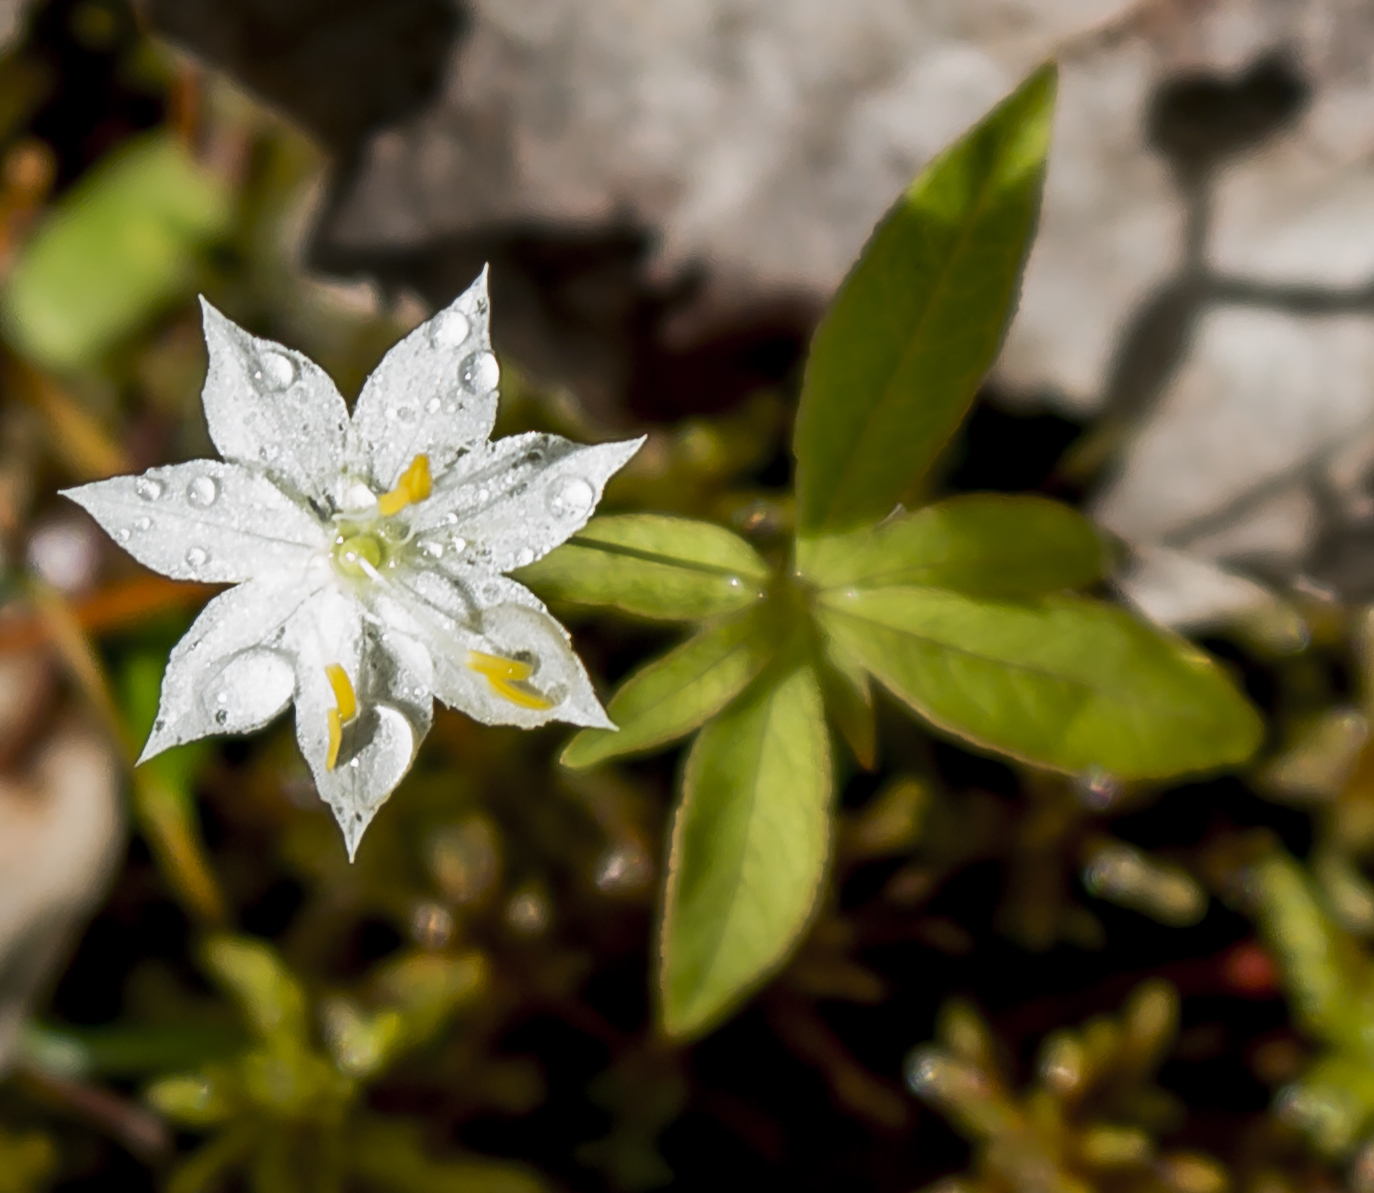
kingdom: Plantae
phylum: Tracheophyta
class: Magnoliopsida
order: Ericales
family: Primulaceae
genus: Lysimachia
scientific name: Lysimachia borealis
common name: American starflower
